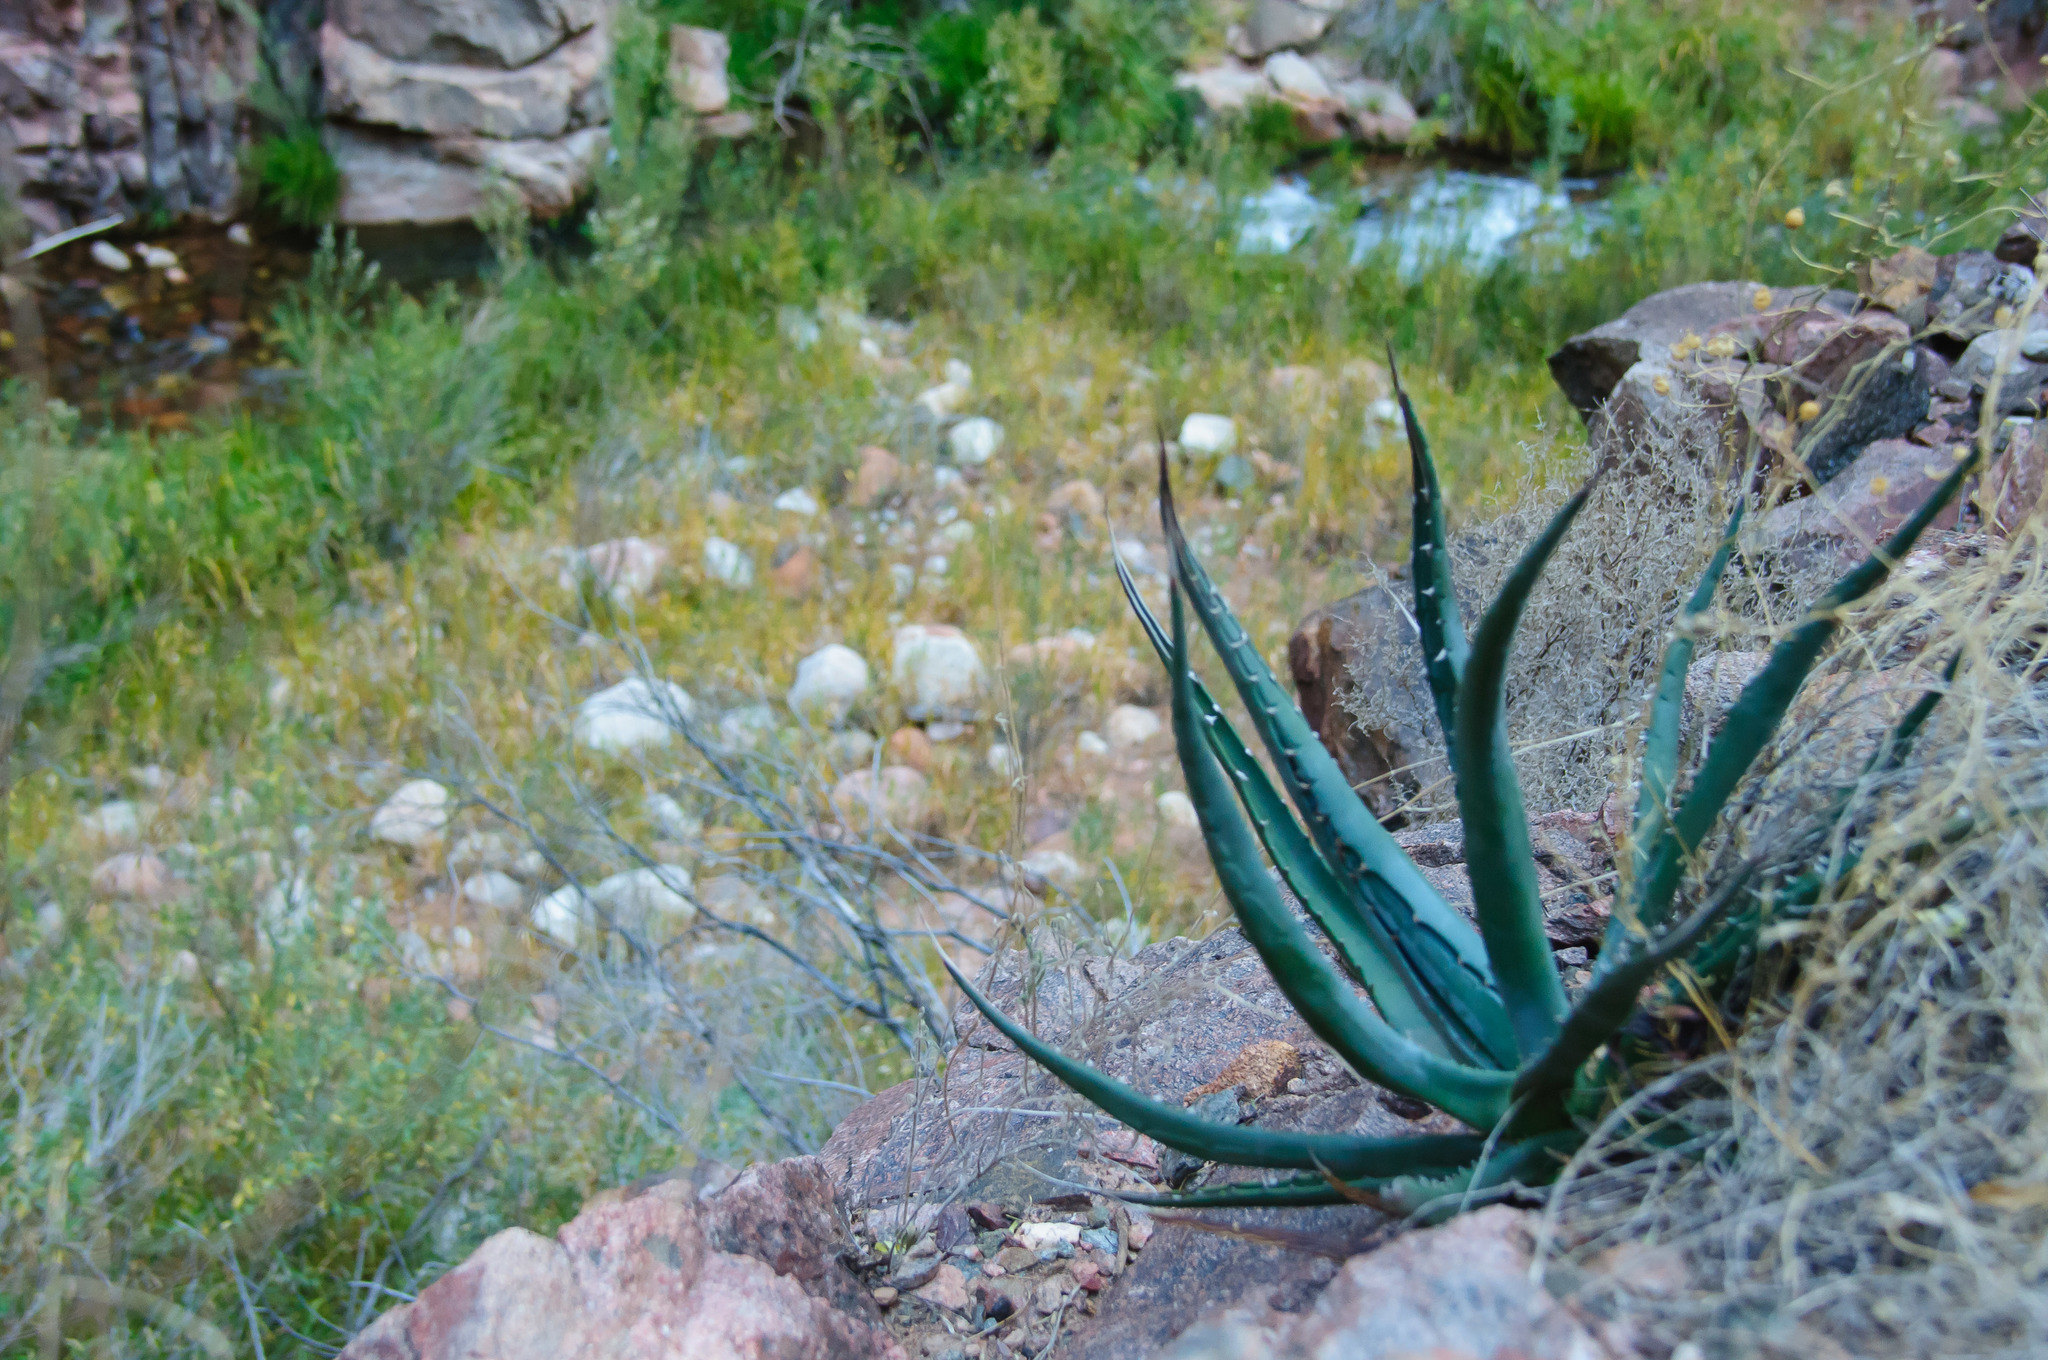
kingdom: Plantae
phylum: Tracheophyta
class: Liliopsida
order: Asparagales
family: Asparagaceae
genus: Agave
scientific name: Agave utahensis
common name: Utah agave
